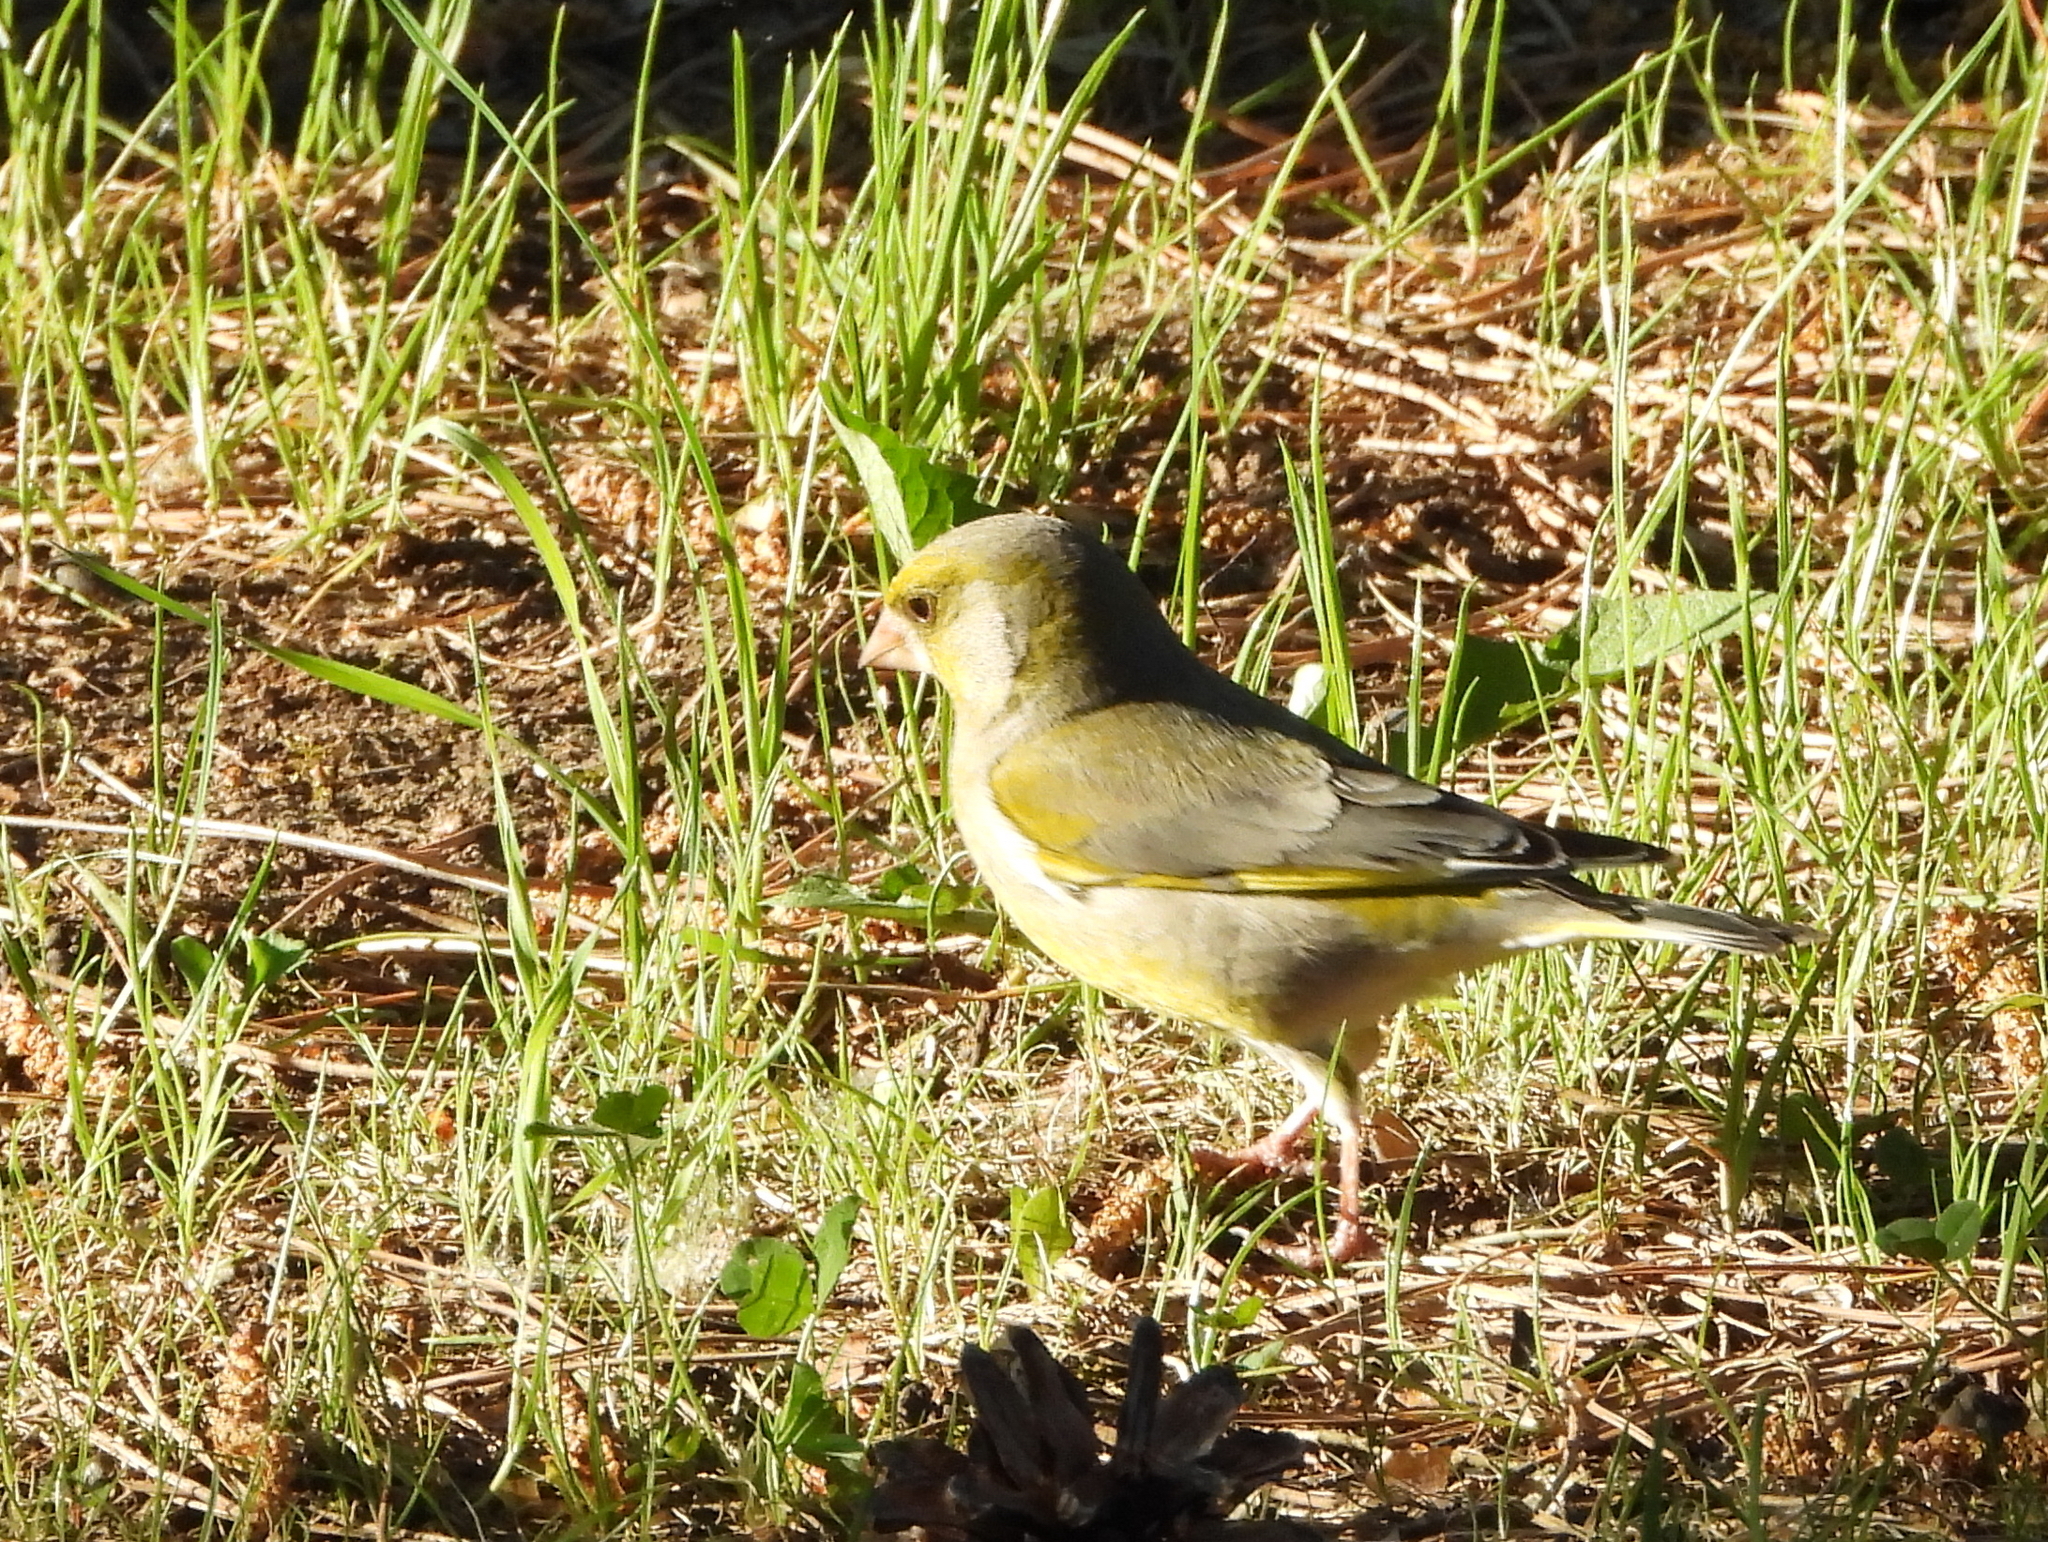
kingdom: Plantae
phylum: Tracheophyta
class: Liliopsida
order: Poales
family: Poaceae
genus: Chloris
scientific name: Chloris chloris
